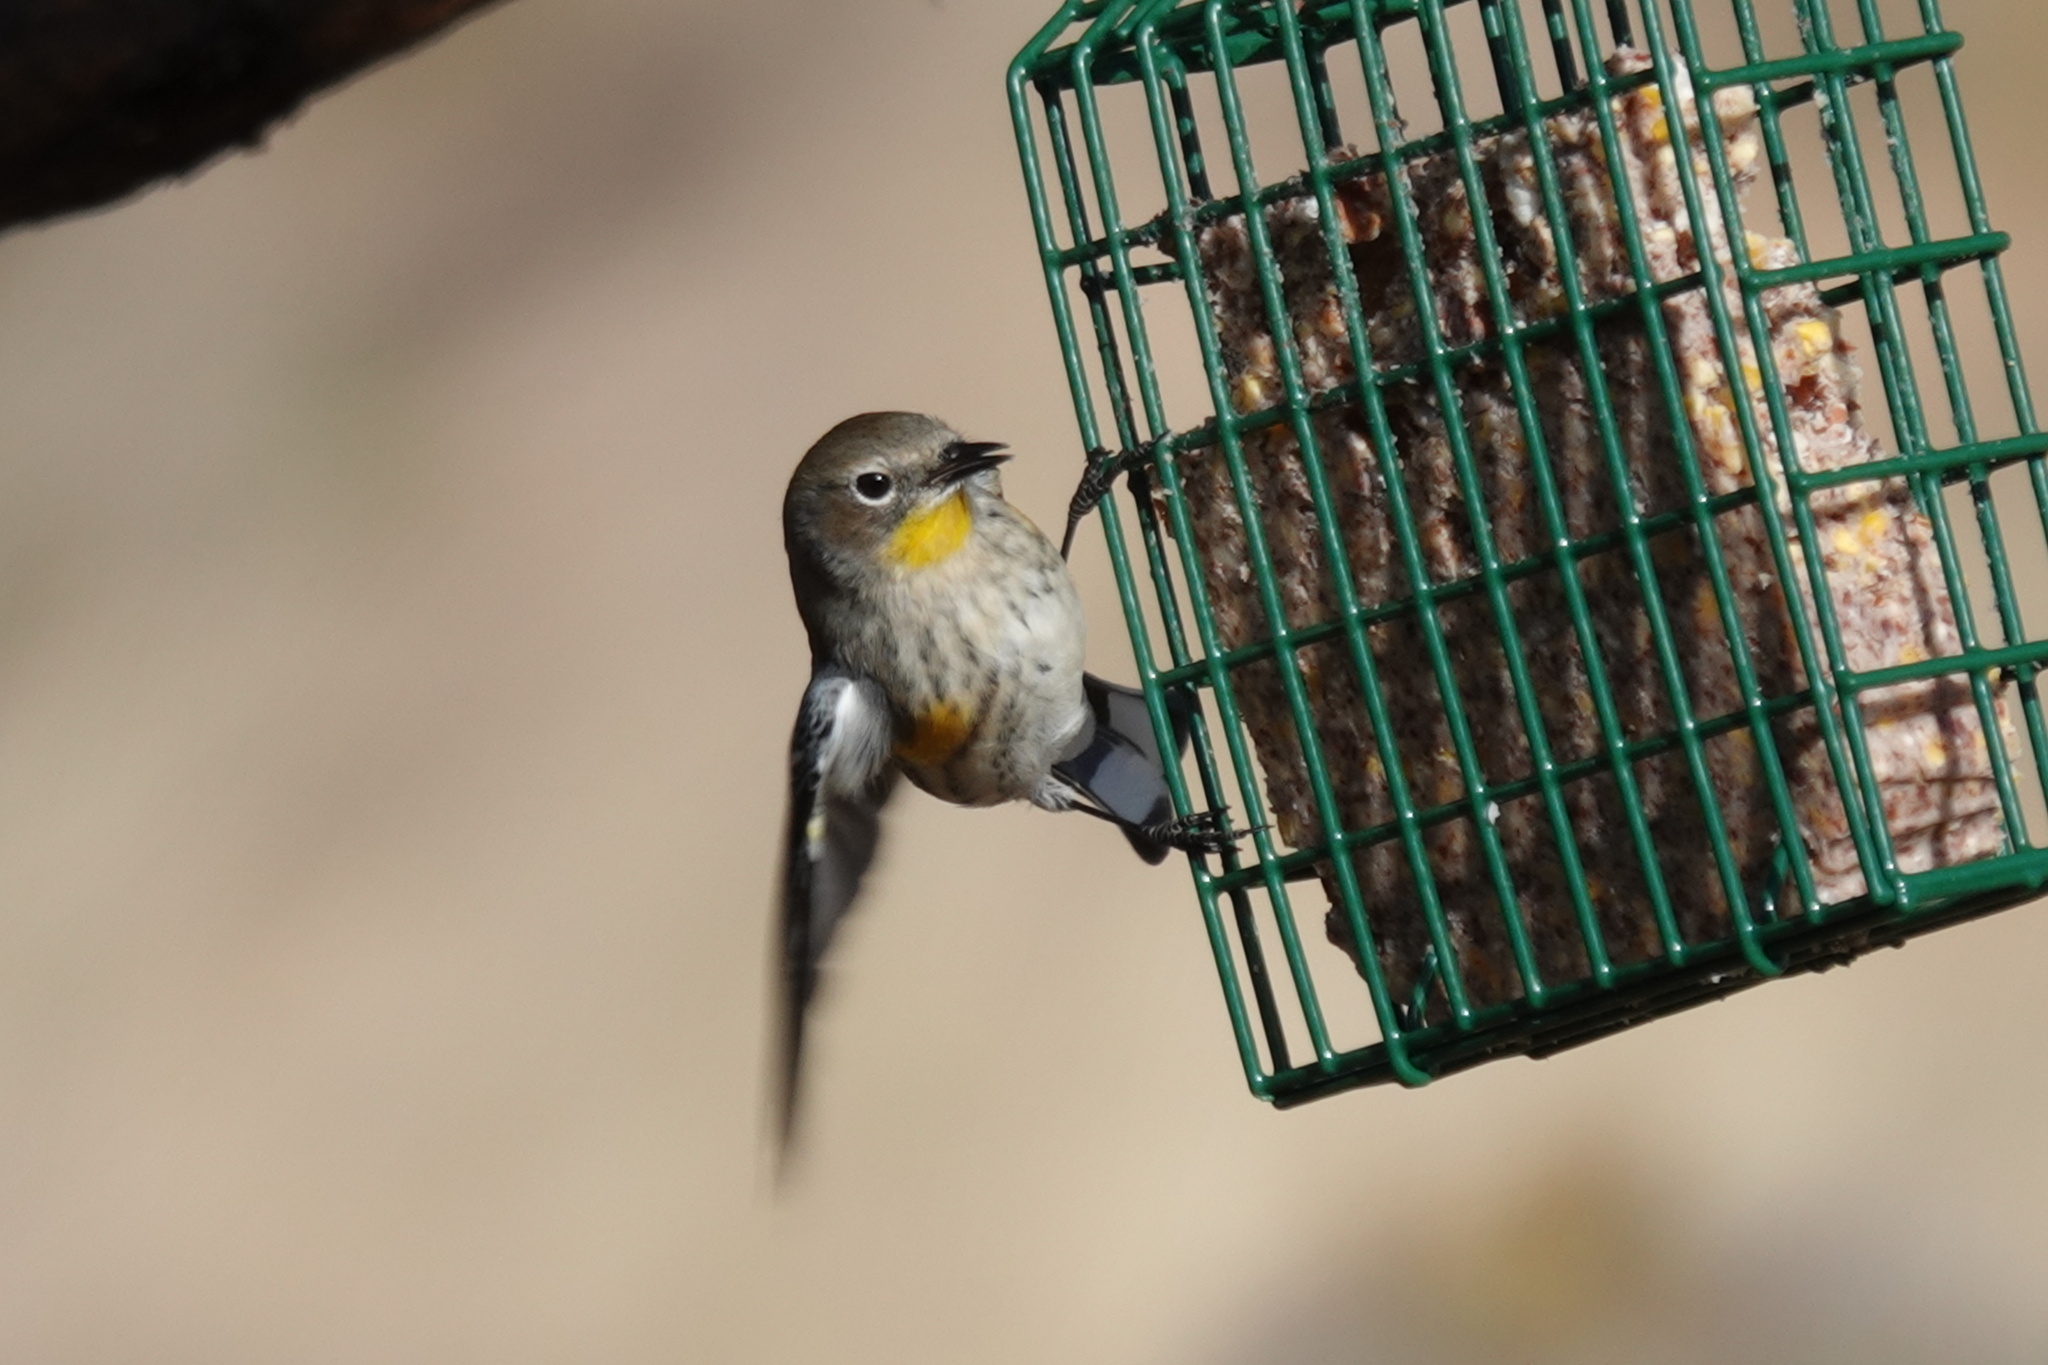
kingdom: Animalia
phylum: Chordata
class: Aves
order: Passeriformes
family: Parulidae
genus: Setophaga
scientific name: Setophaga coronata
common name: Myrtle warbler
